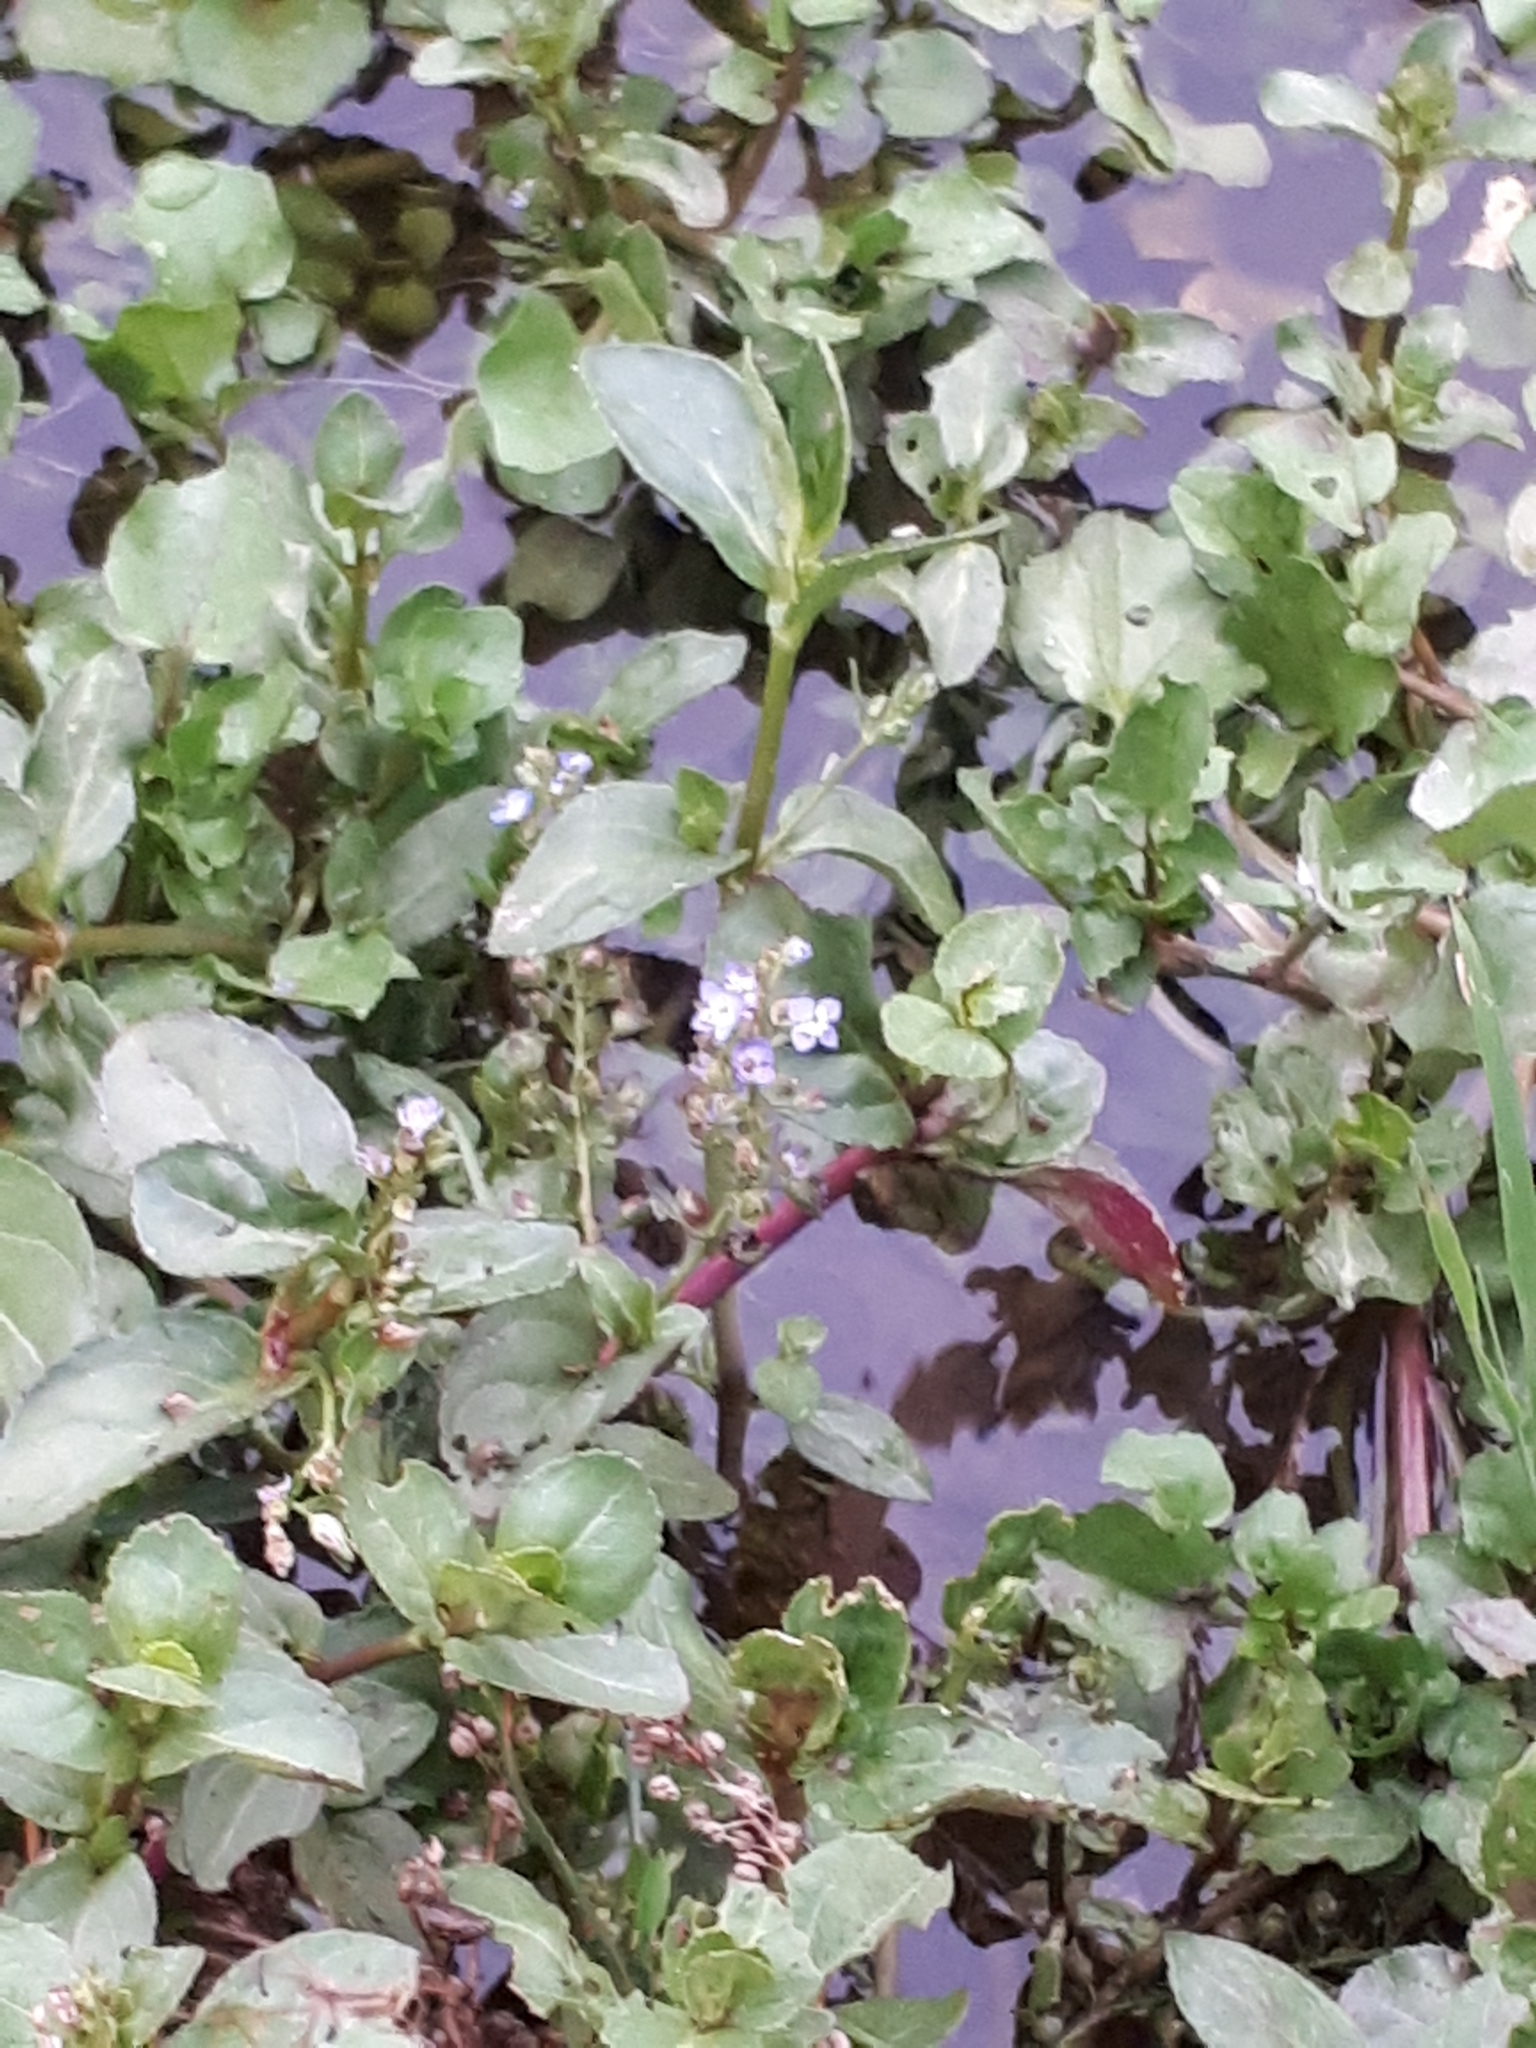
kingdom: Plantae
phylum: Tracheophyta
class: Magnoliopsida
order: Lamiales
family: Plantaginaceae
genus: Veronica
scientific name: Veronica beccabunga
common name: Brooklime
